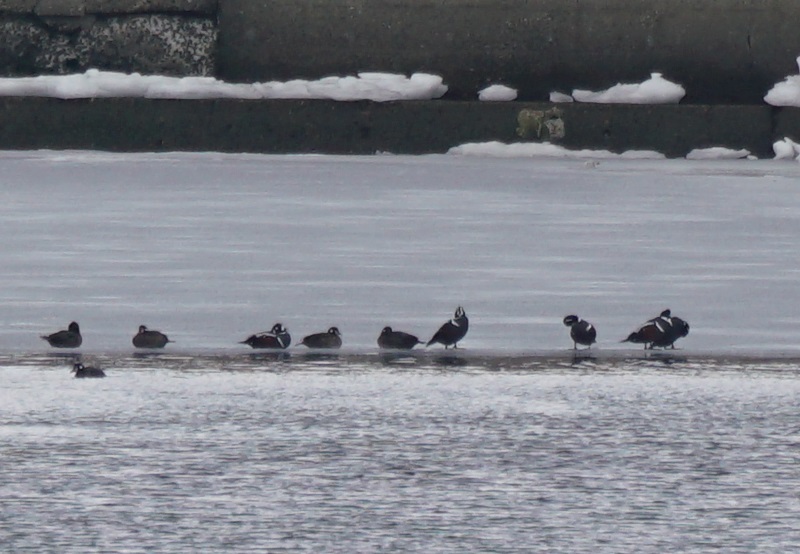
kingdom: Animalia
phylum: Chordata
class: Aves
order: Anseriformes
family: Anatidae
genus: Histrionicus
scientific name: Histrionicus histrionicus
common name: Harlequin duck
